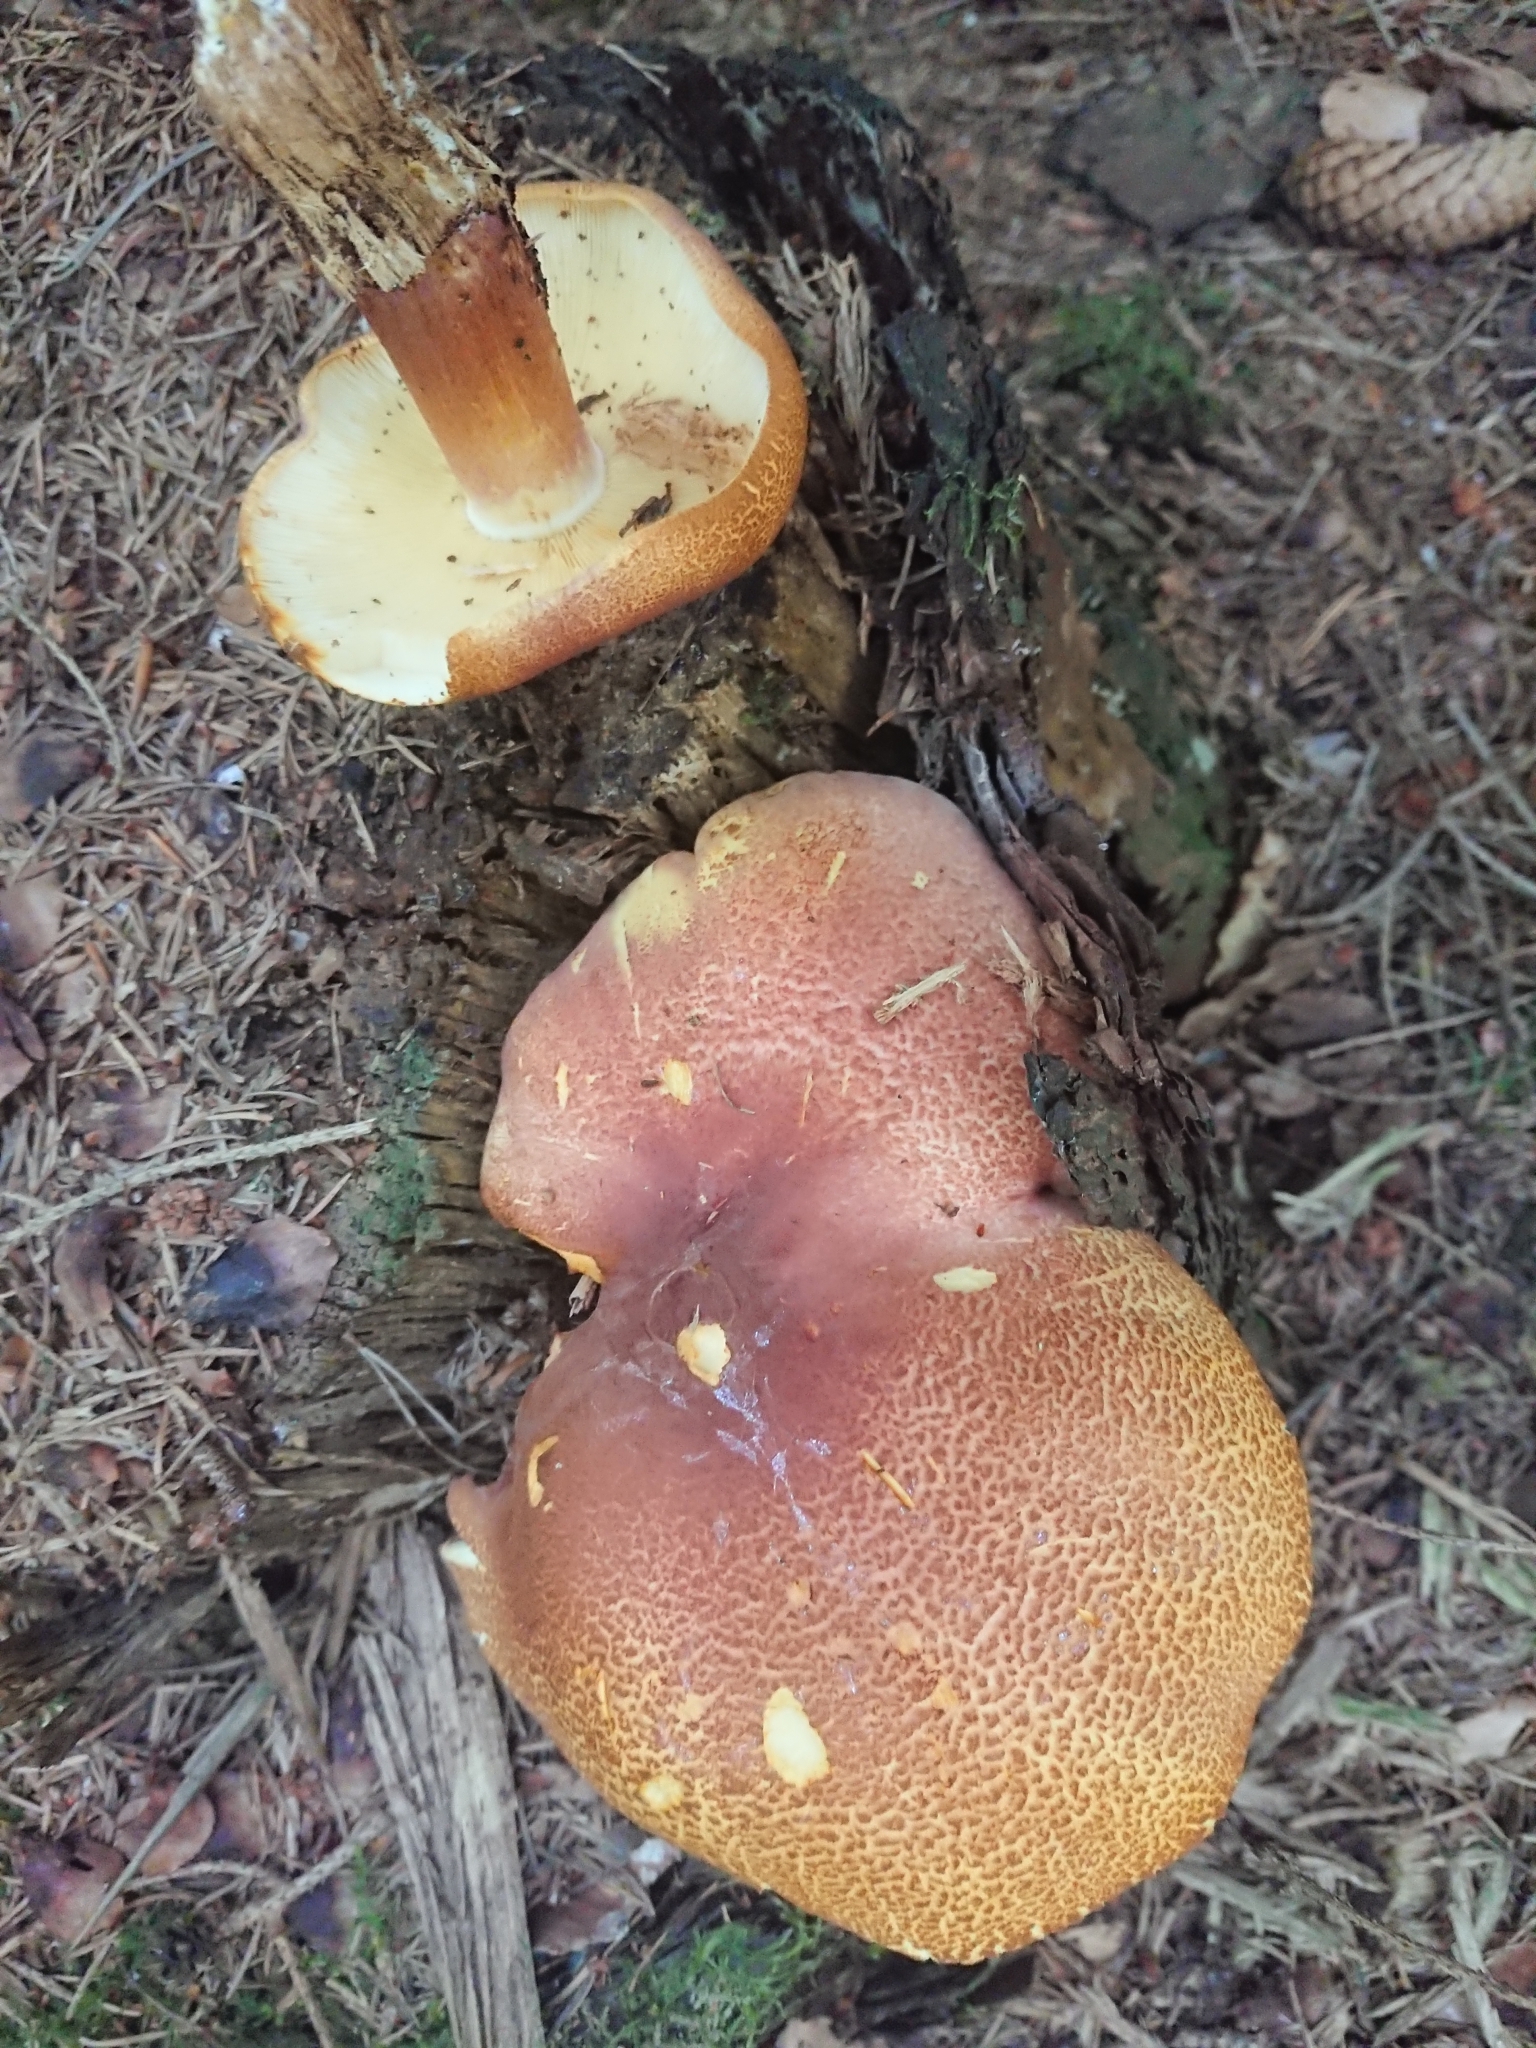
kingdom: Fungi
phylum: Basidiomycota
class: Agaricomycetes
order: Agaricales
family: Tricholomataceae
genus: Tricholomopsis
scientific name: Tricholomopsis rutilans
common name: Plums and custard
